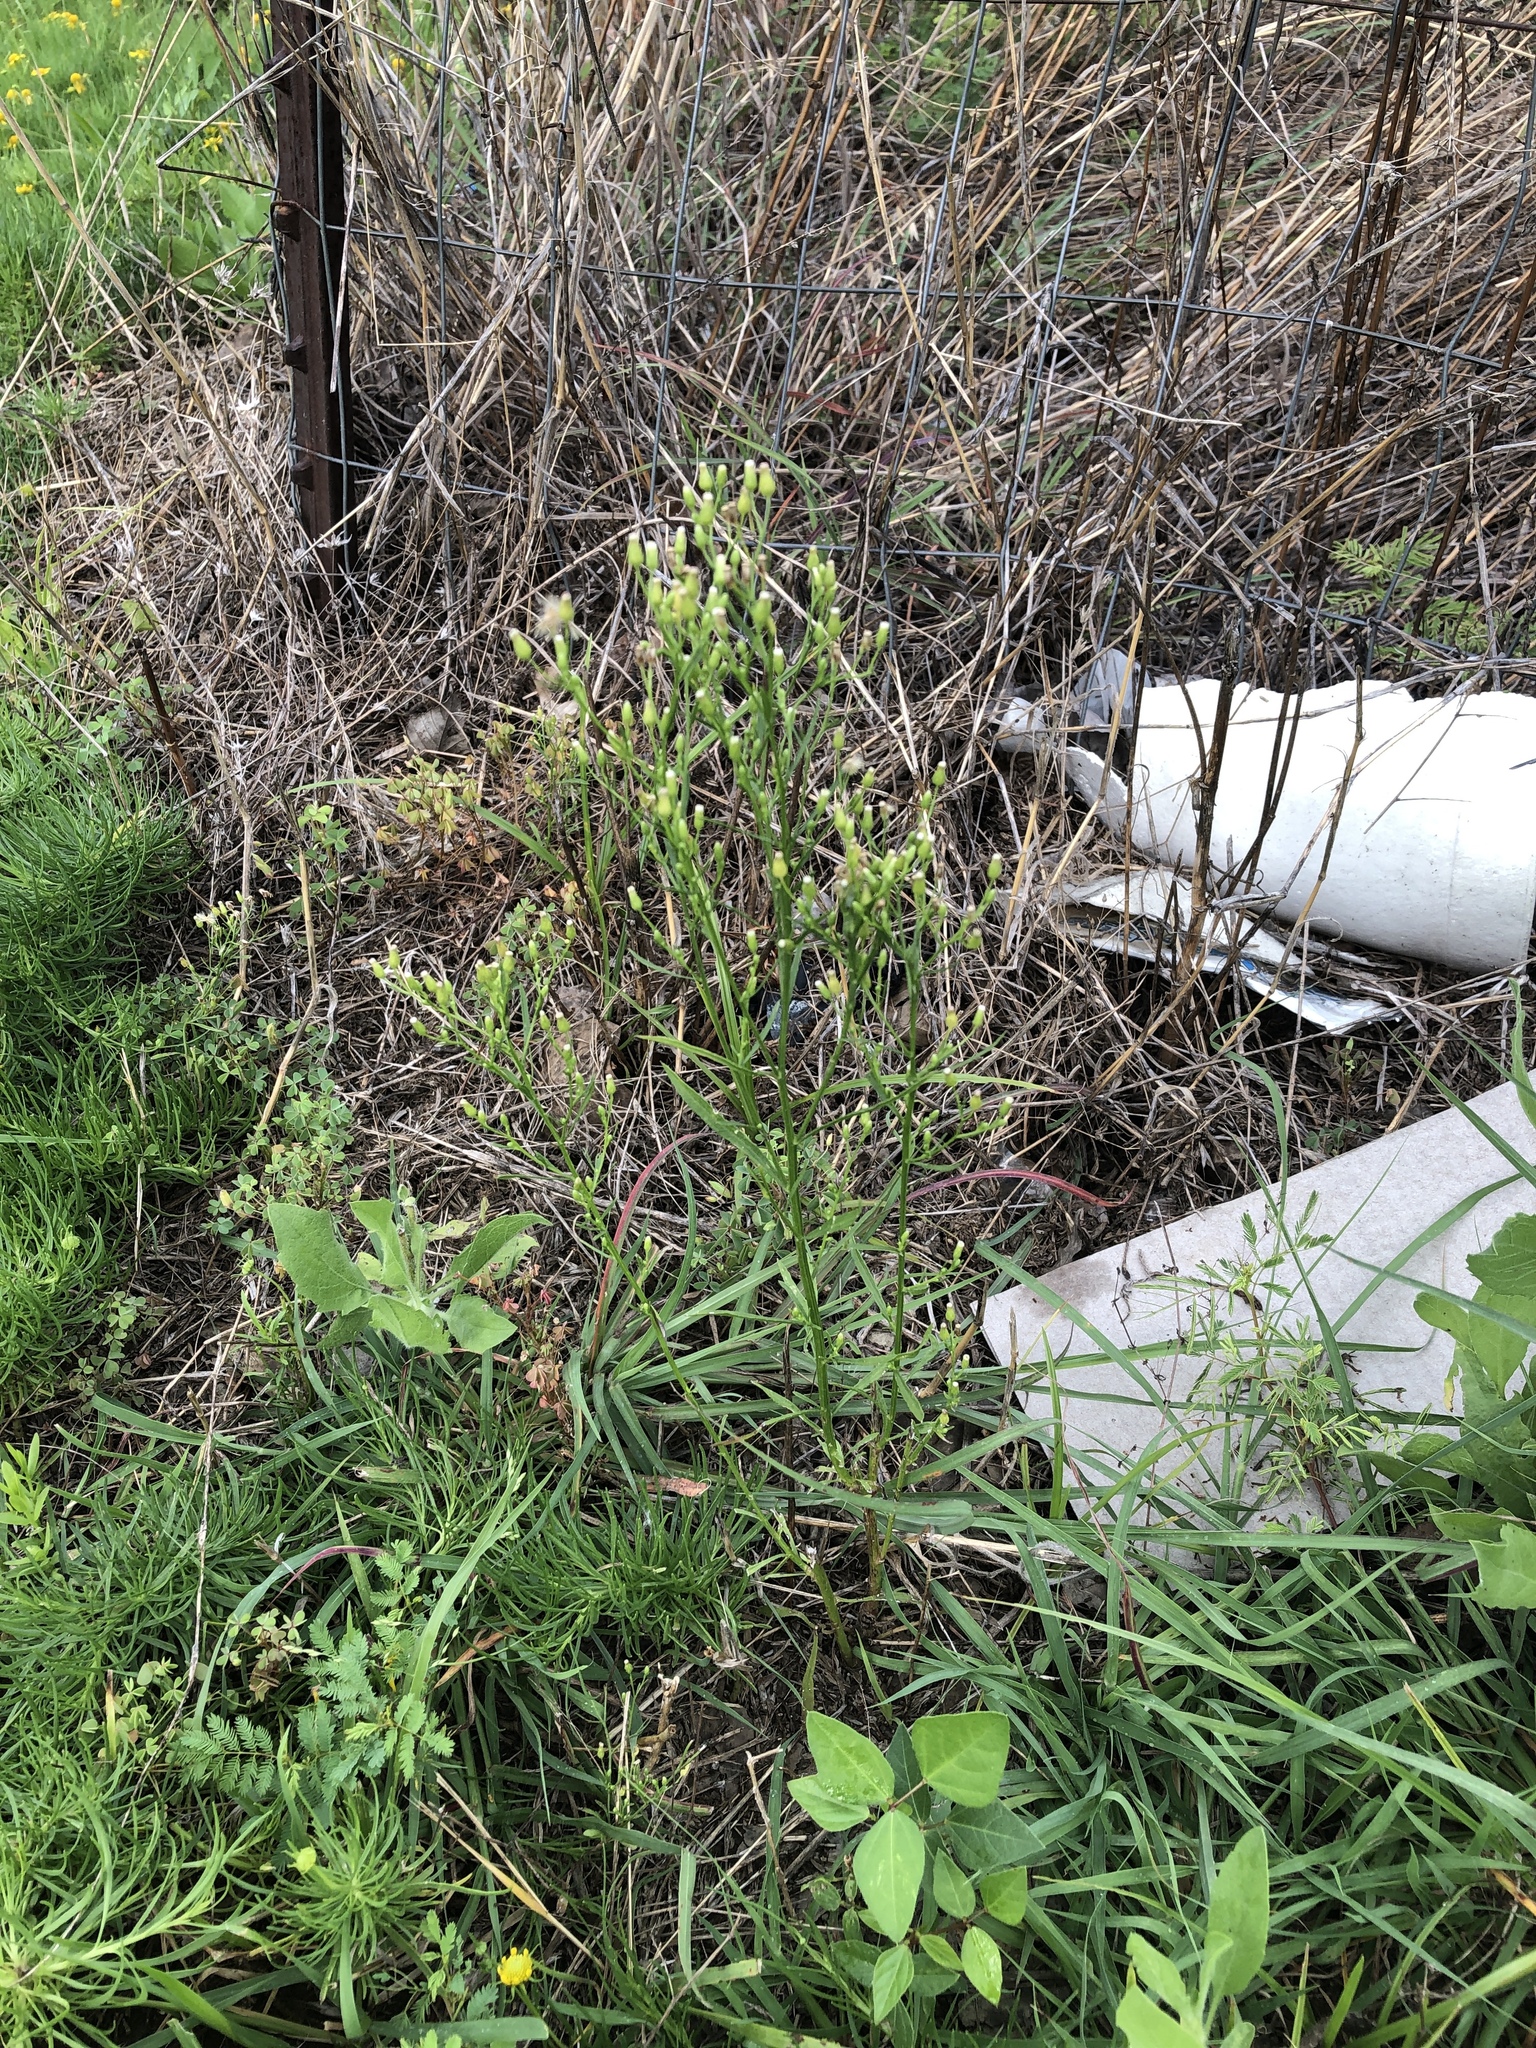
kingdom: Plantae
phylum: Tracheophyta
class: Magnoliopsida
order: Asterales
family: Asteraceae
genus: Erigeron
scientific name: Erigeron canadensis
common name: Canadian fleabane
